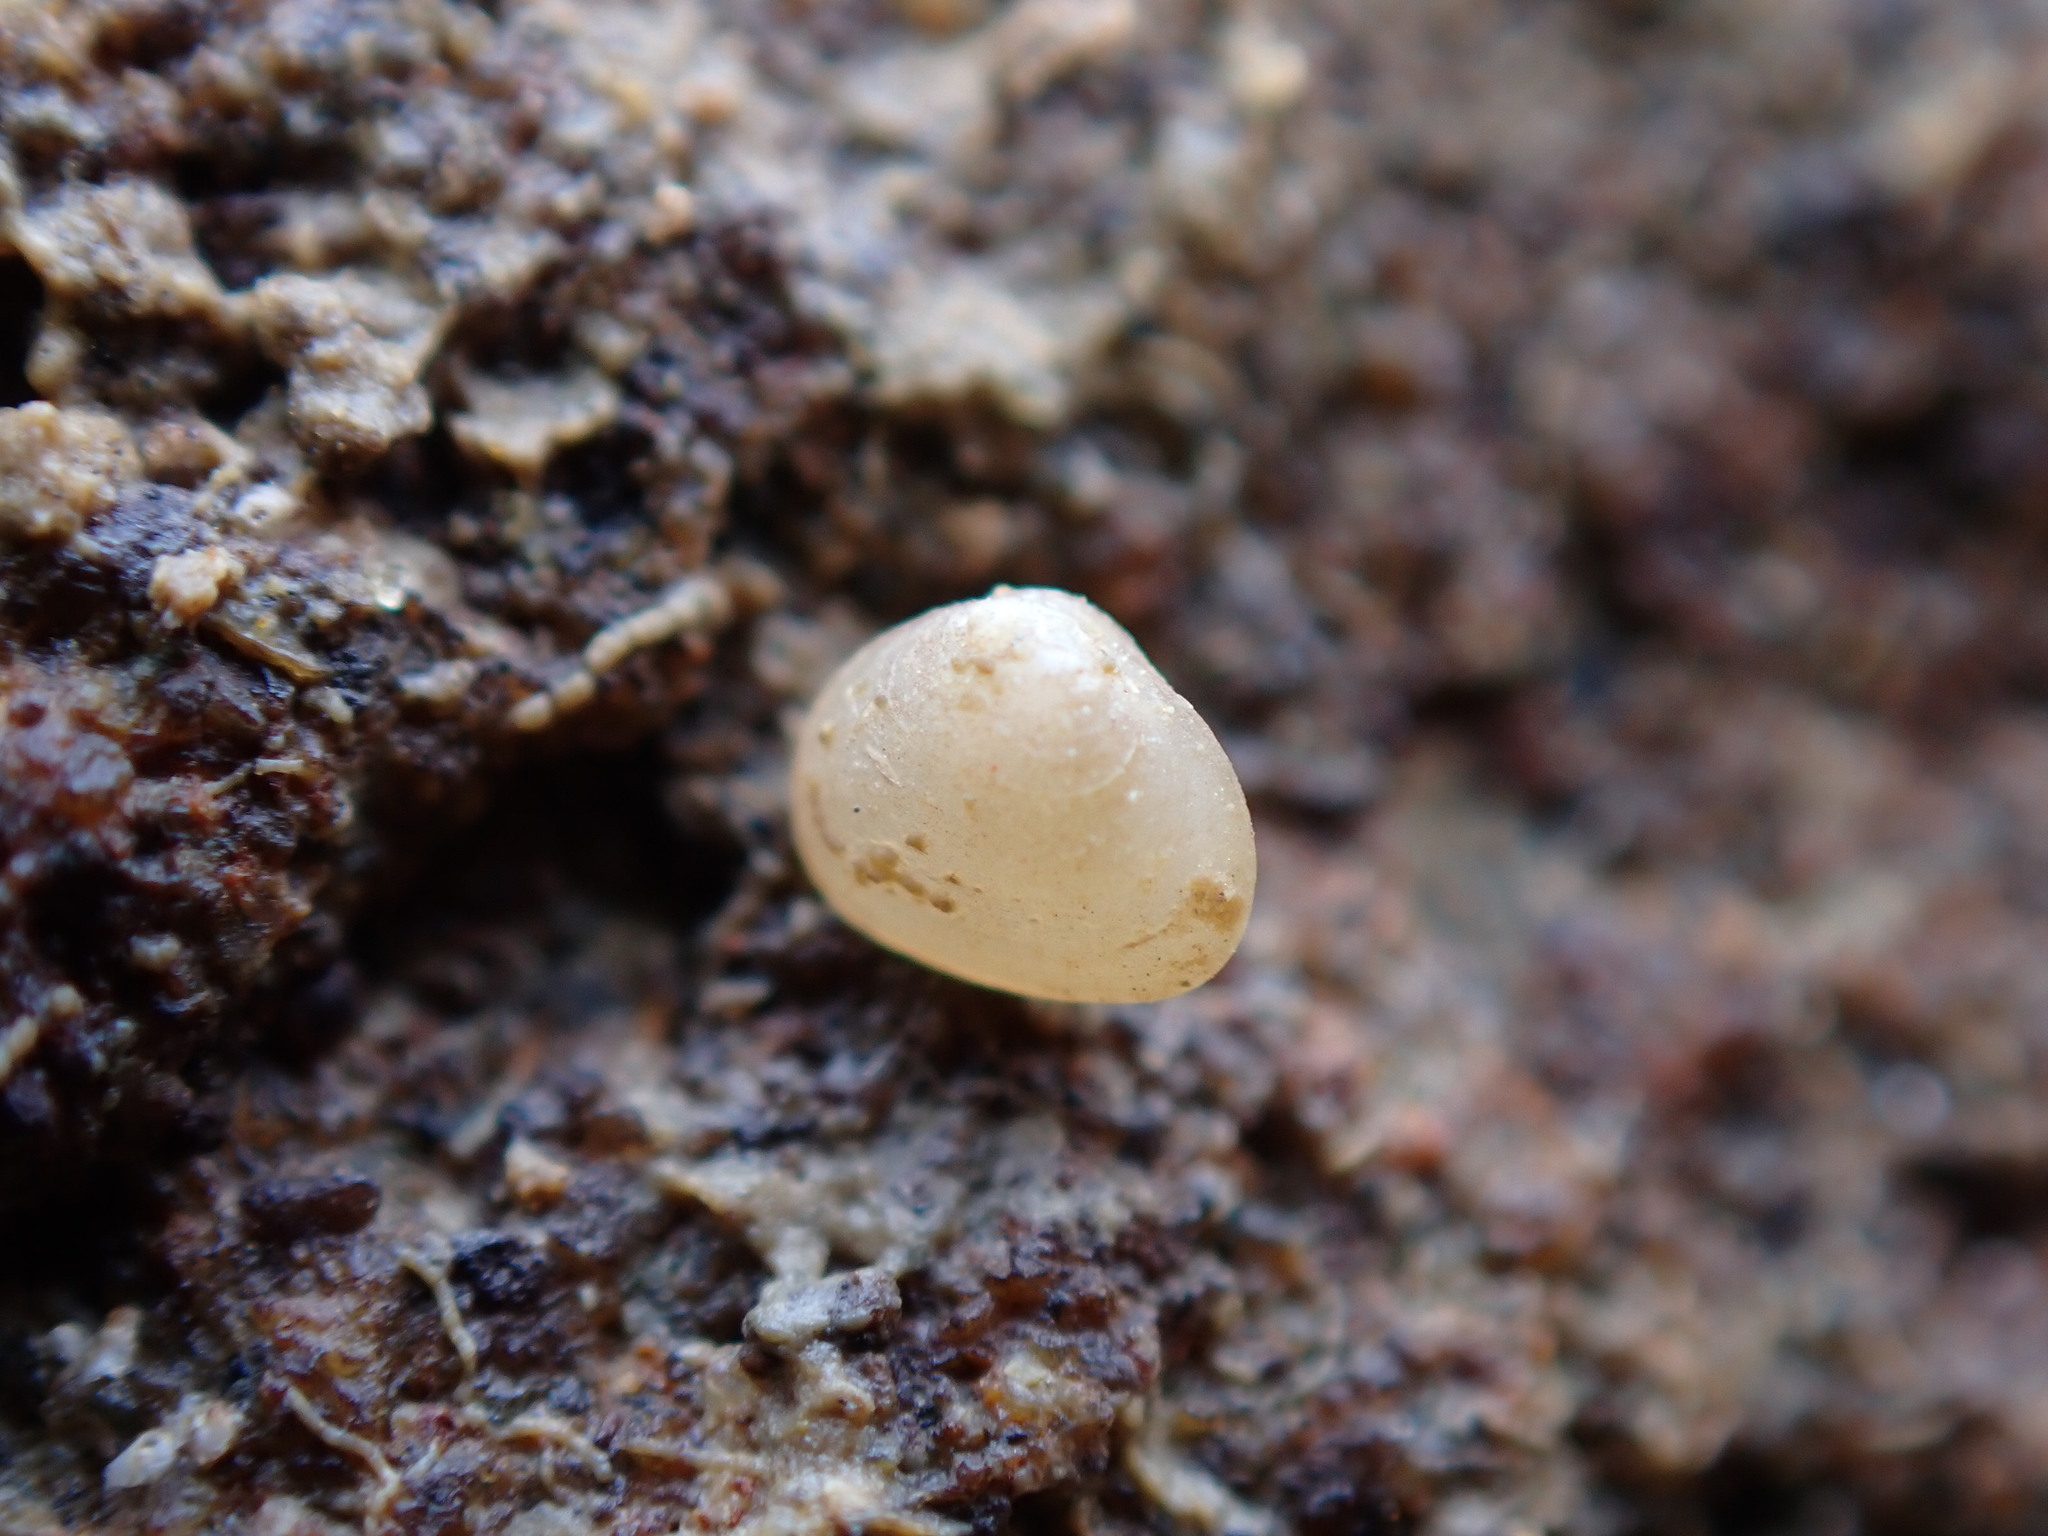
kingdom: Animalia
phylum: Mollusca
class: Bivalvia
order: Galeommatida
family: Lasaeidae
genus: Lasaea
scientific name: Lasaea maoria
